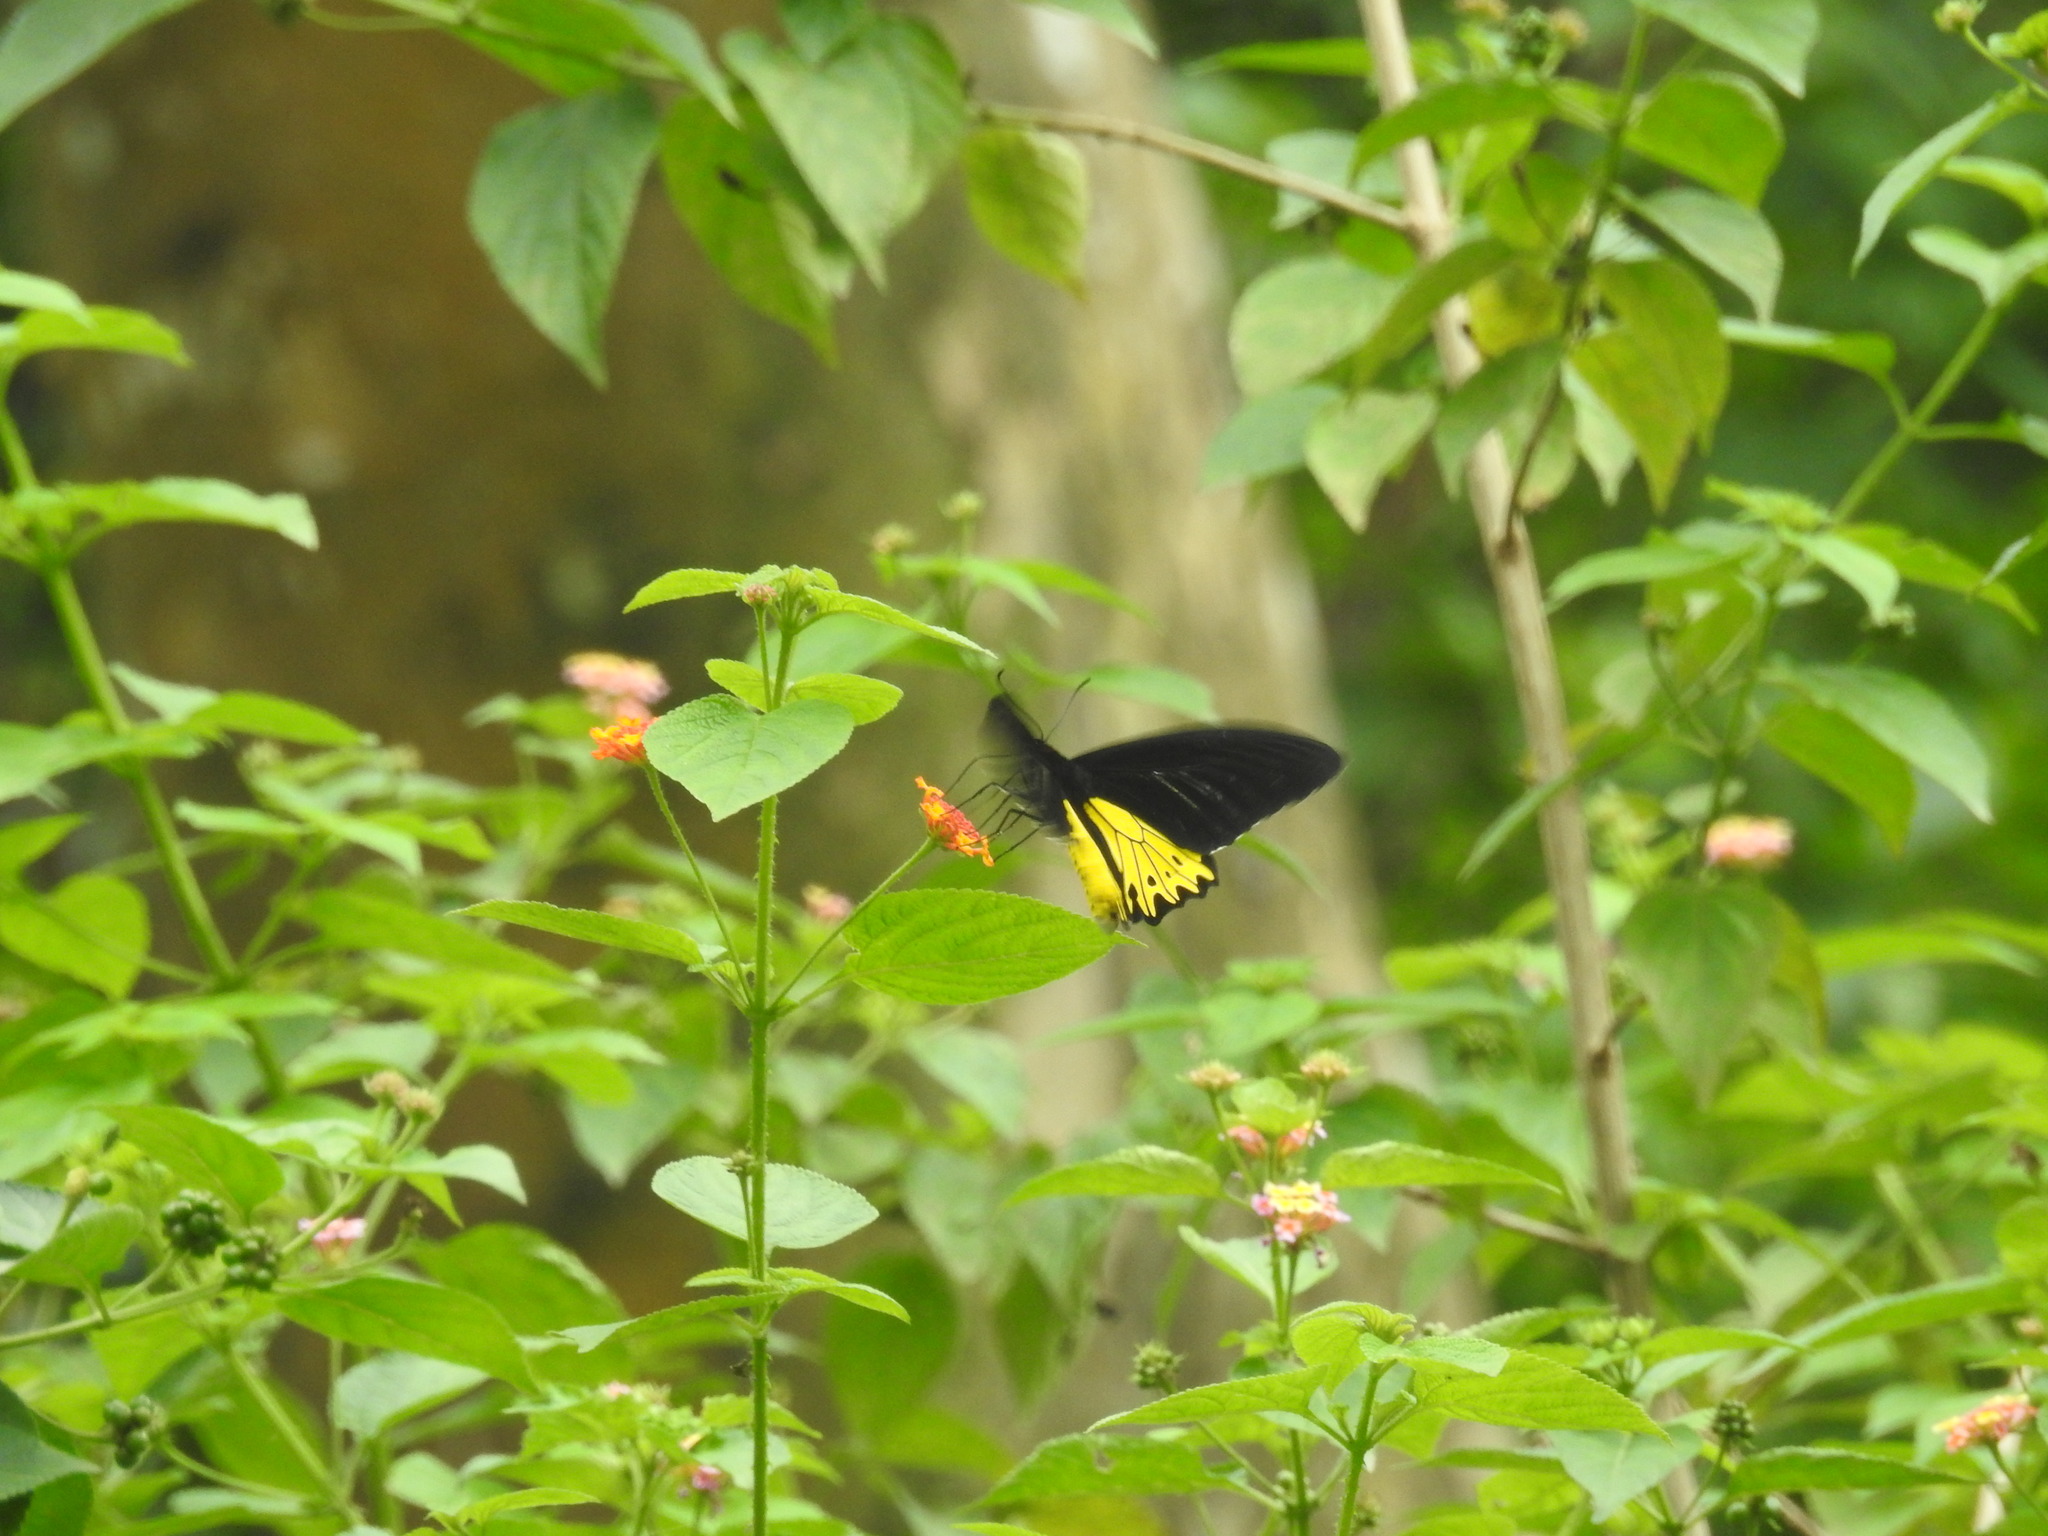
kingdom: Animalia
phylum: Arthropoda
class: Insecta
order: Lepidoptera
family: Papilionidae
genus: Troides
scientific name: Troides helena
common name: Common birdwing
